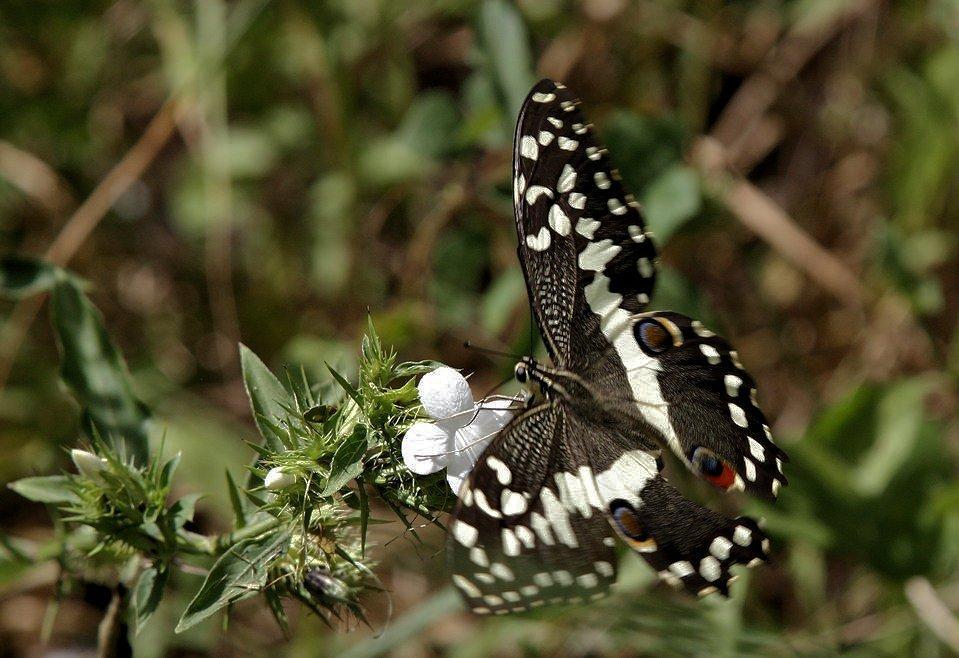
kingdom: Animalia
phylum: Arthropoda
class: Insecta
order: Lepidoptera
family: Papilionidae
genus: Papilio
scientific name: Papilio demodocus
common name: Christmas butterfly
